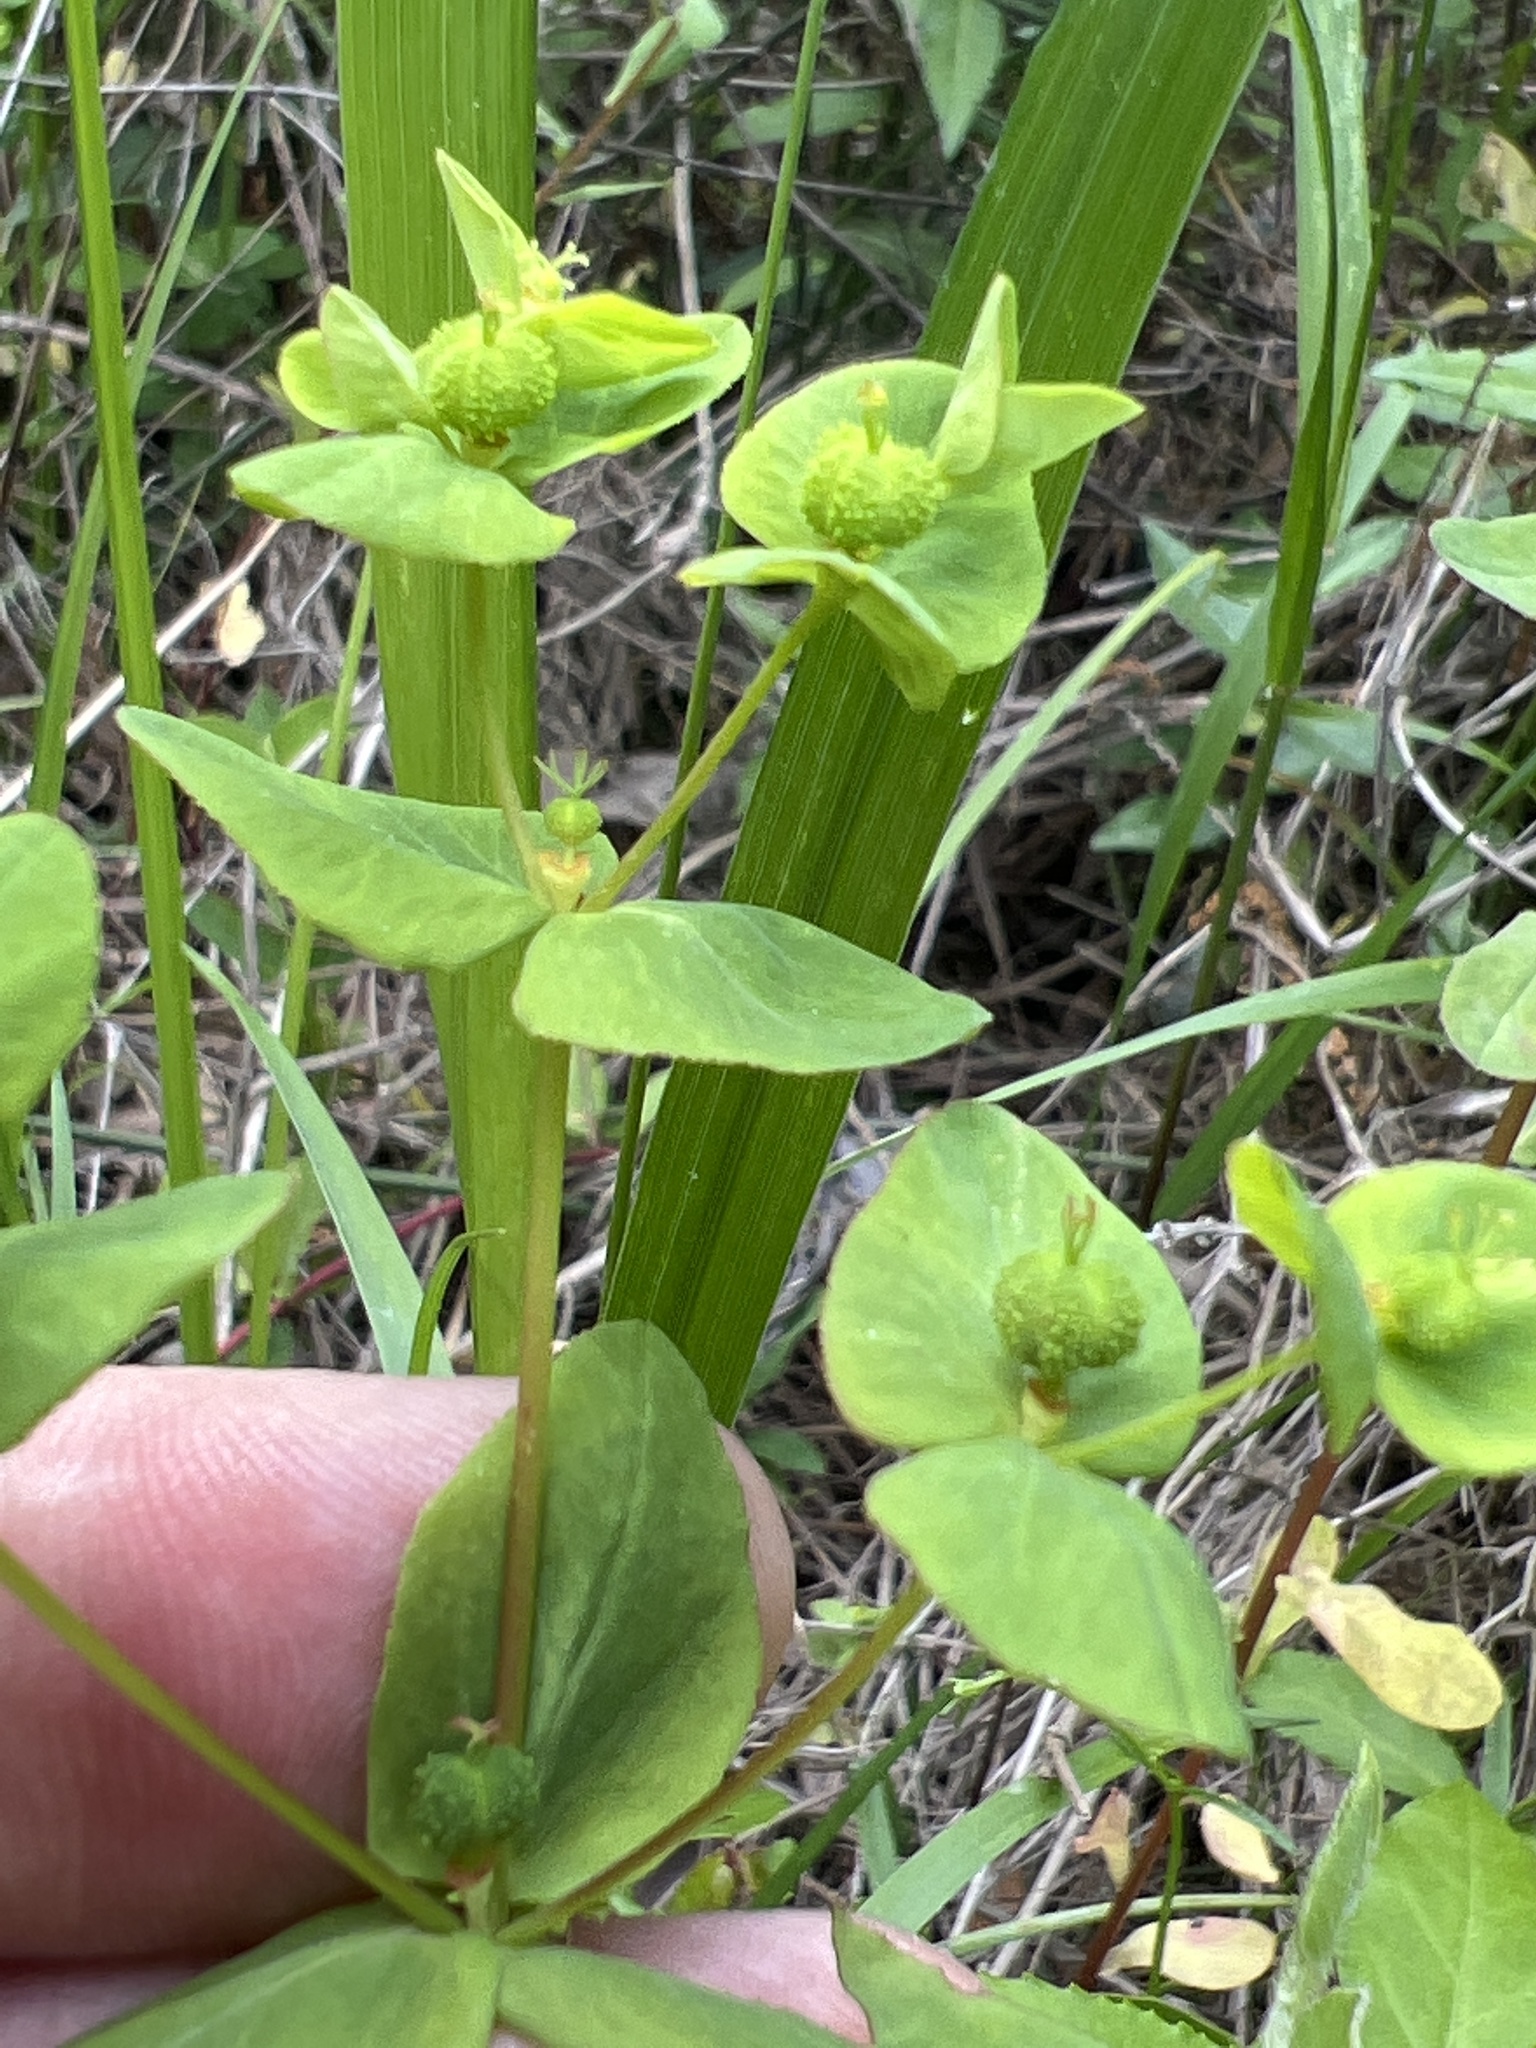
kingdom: Plantae
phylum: Tracheophyta
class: Magnoliopsida
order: Malpighiales
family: Euphorbiaceae
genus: Euphorbia
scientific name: Euphorbia spathulata
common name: Blunt spurge
